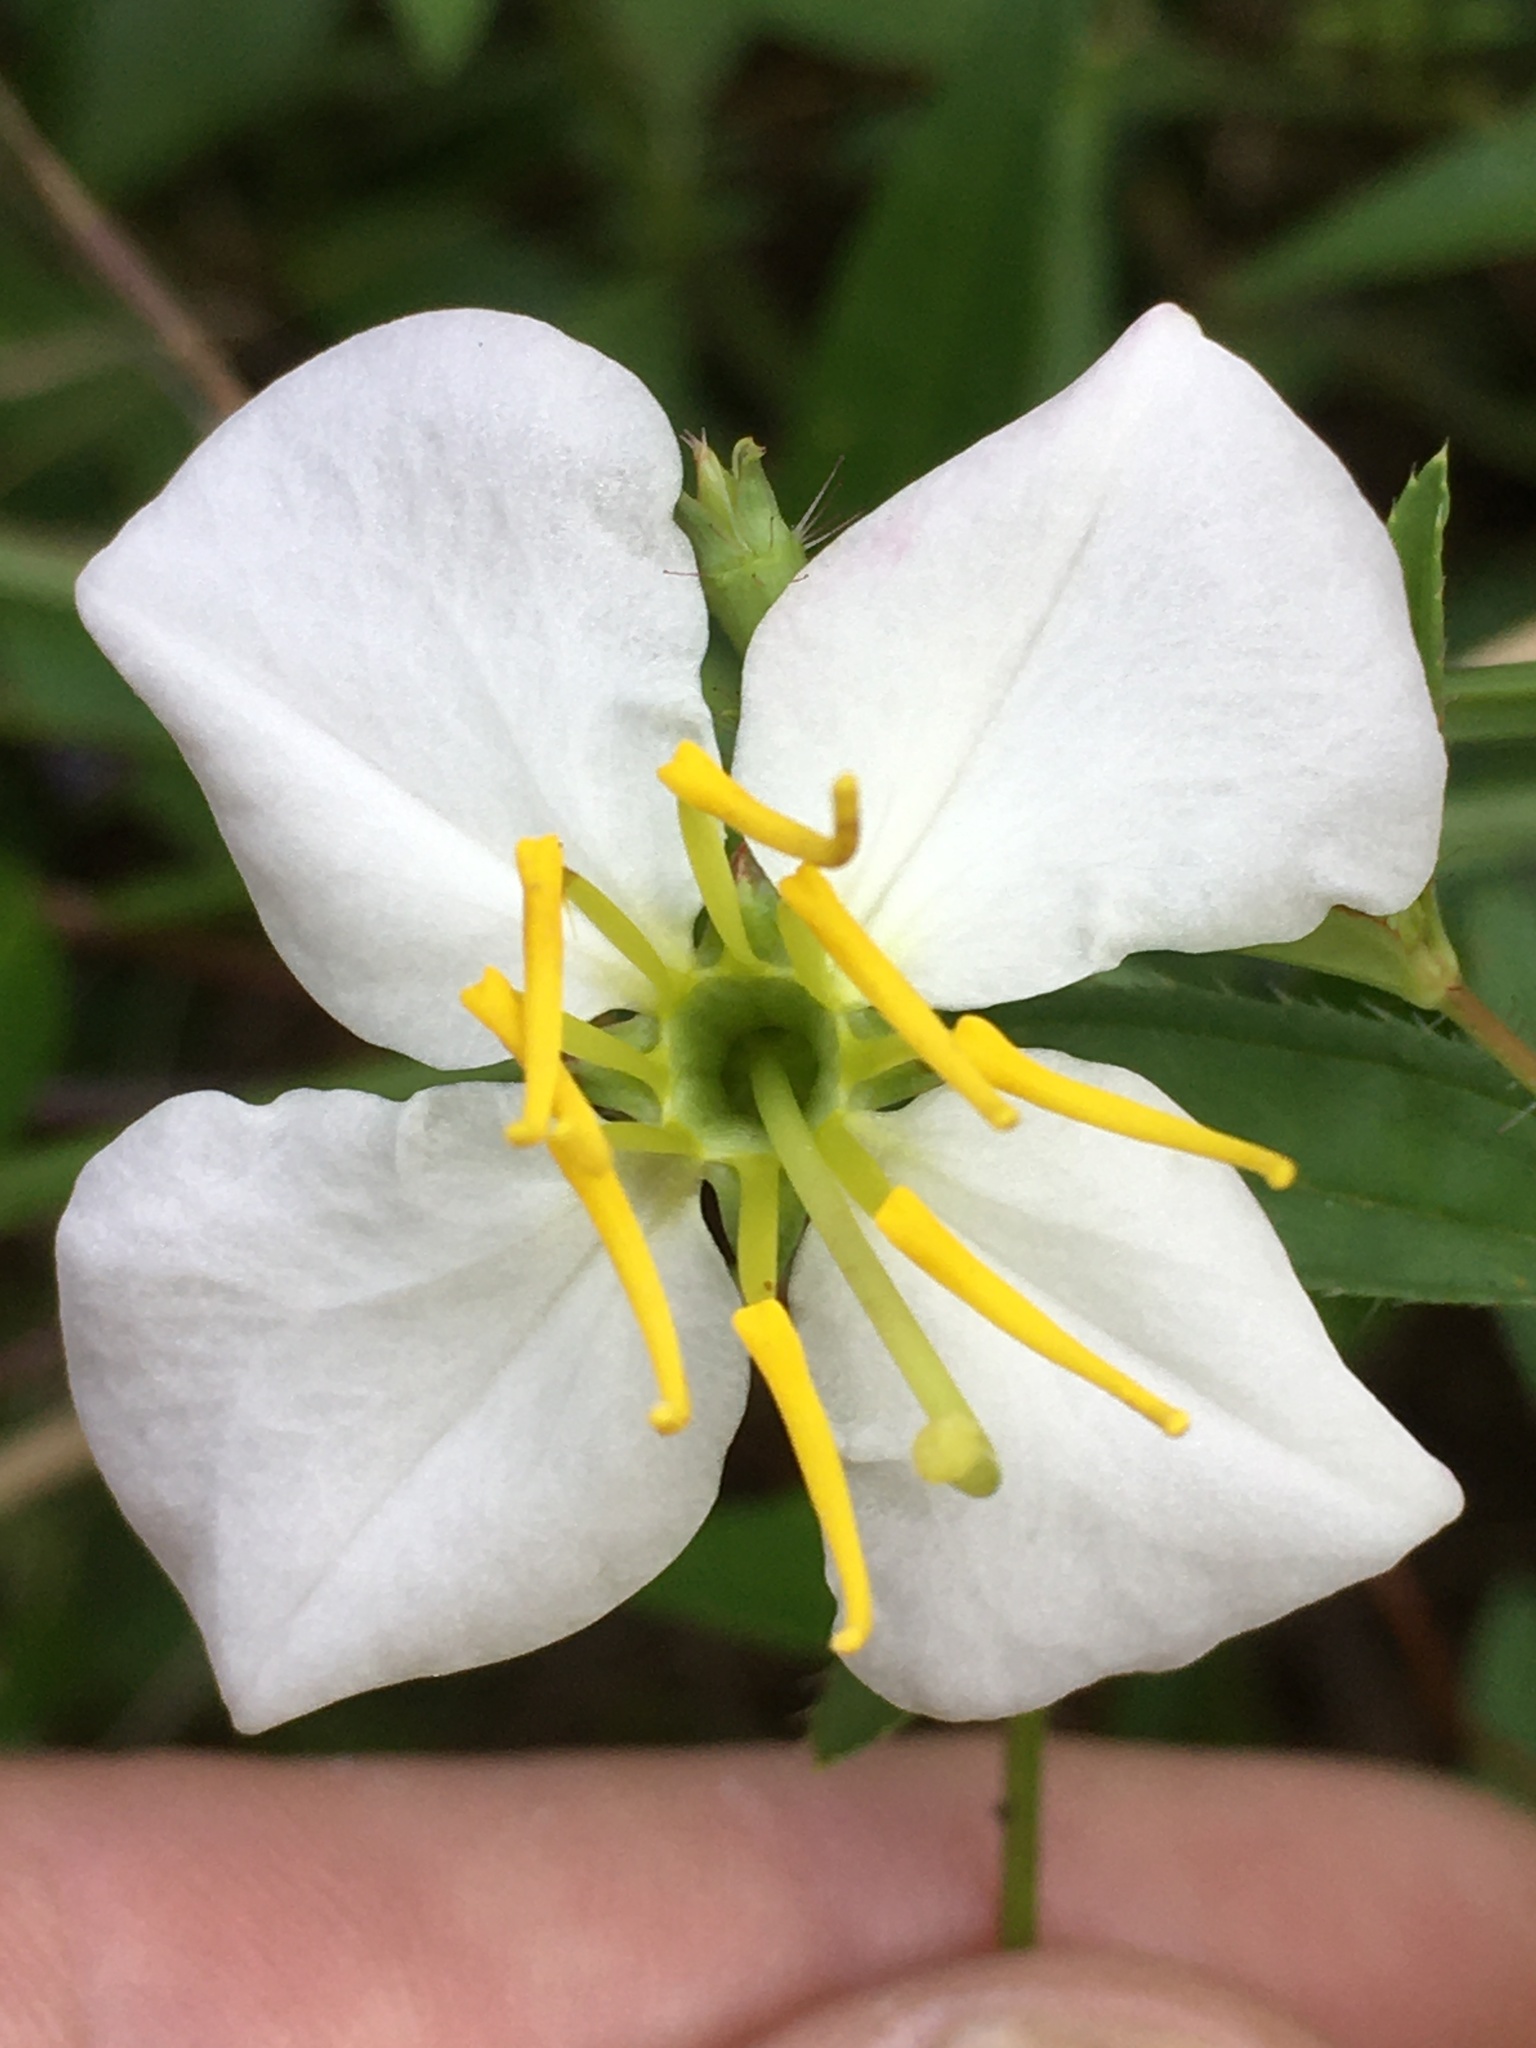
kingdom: Plantae
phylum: Tracheophyta
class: Magnoliopsida
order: Myrtales
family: Melastomataceae
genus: Rhexia
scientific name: Rhexia mariana
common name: Dull meadow-pitcher
